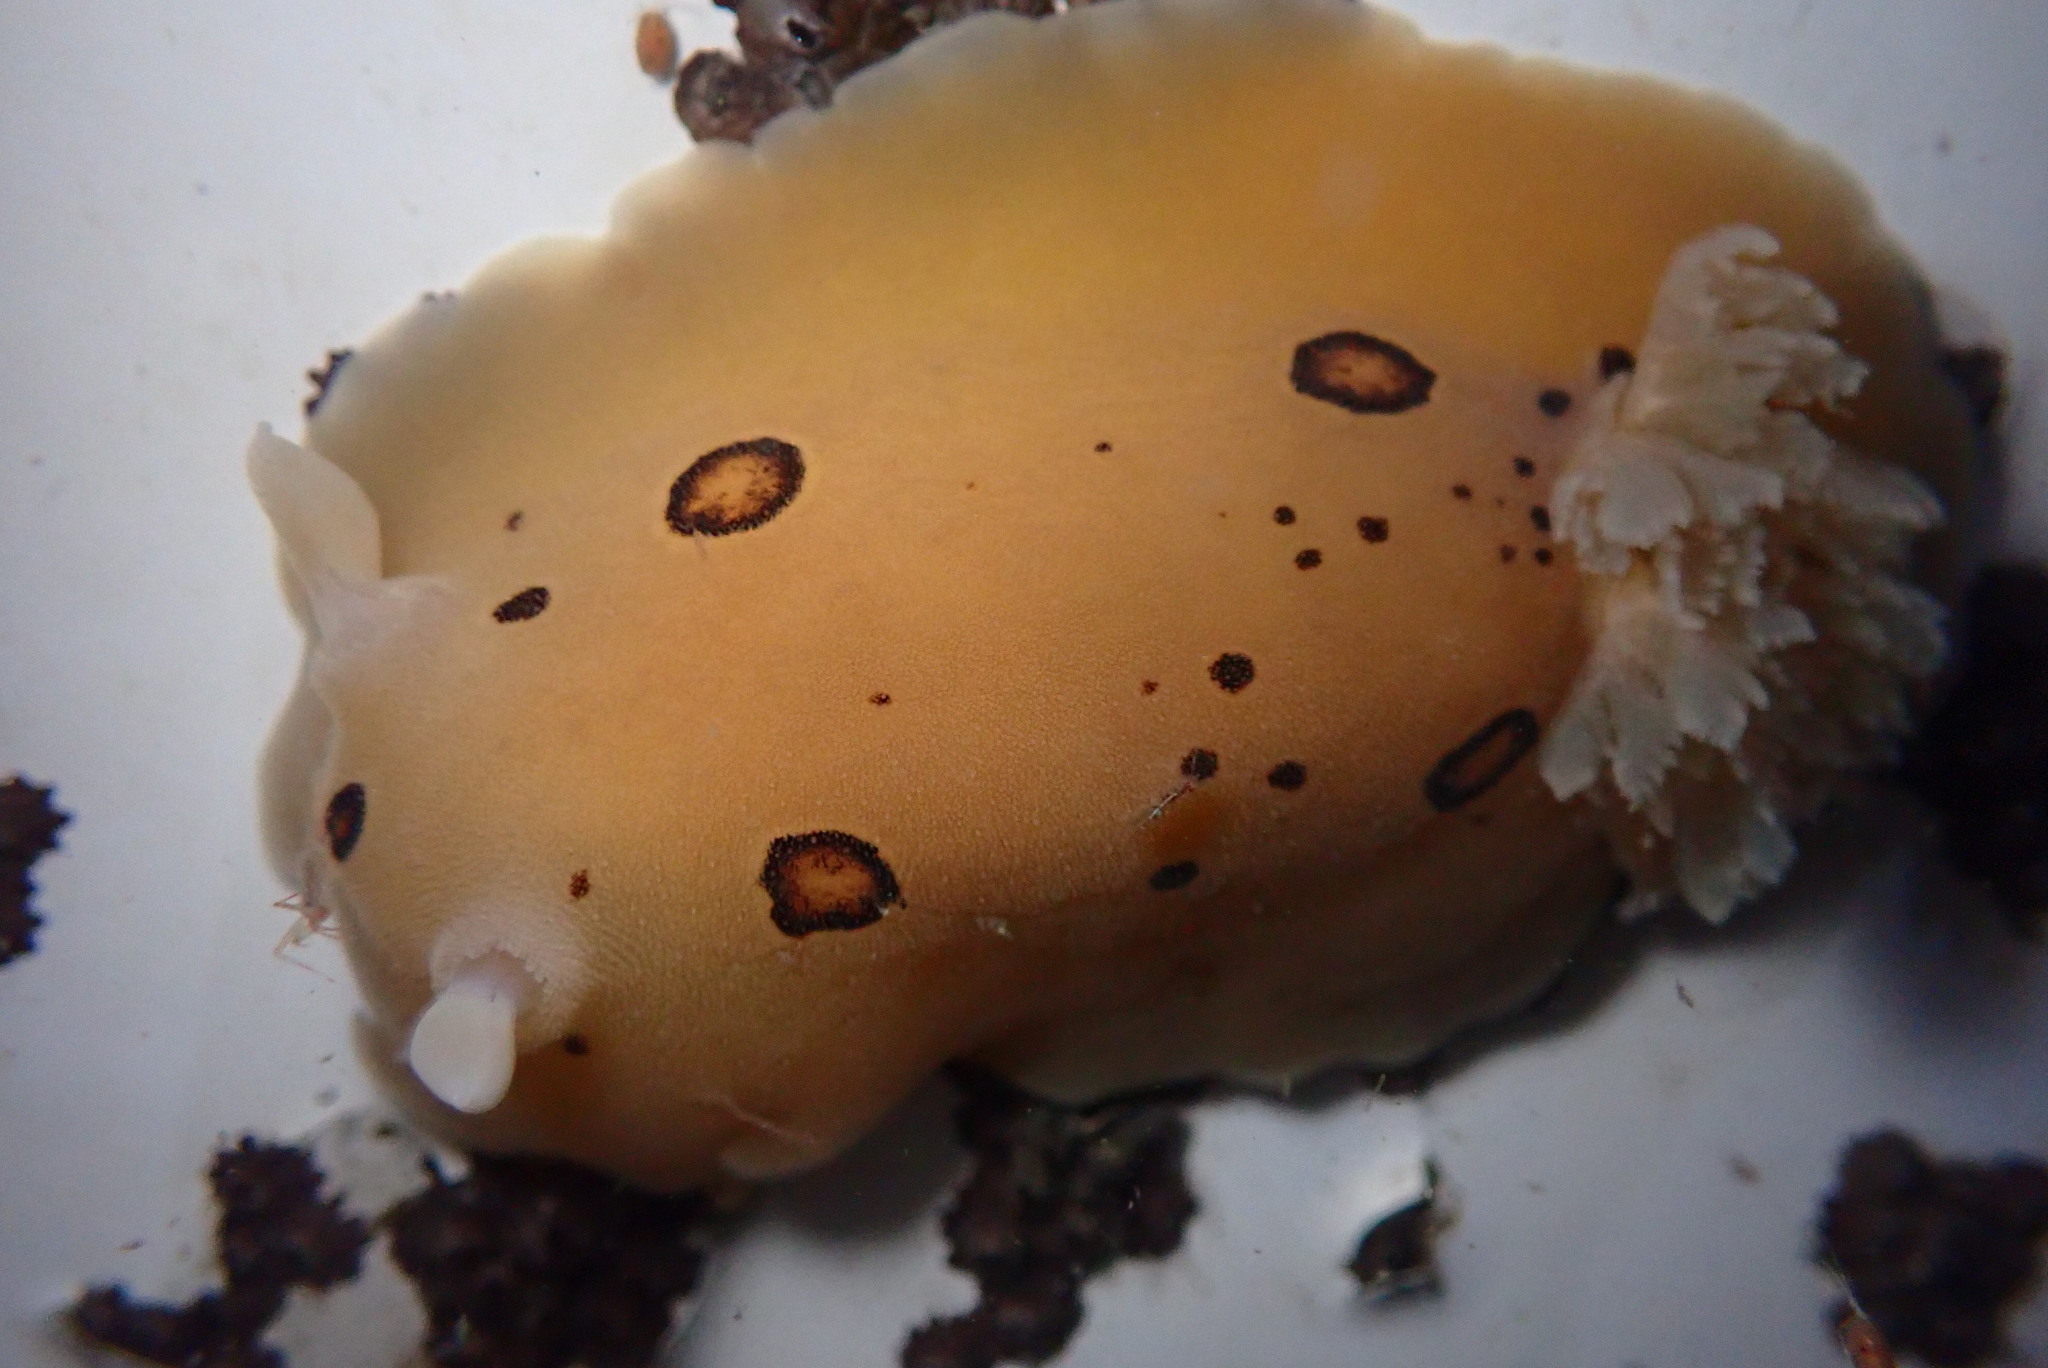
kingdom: Animalia
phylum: Mollusca
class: Gastropoda
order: Nudibranchia
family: Discodorididae
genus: Diaulula
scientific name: Diaulula sandiegensis
